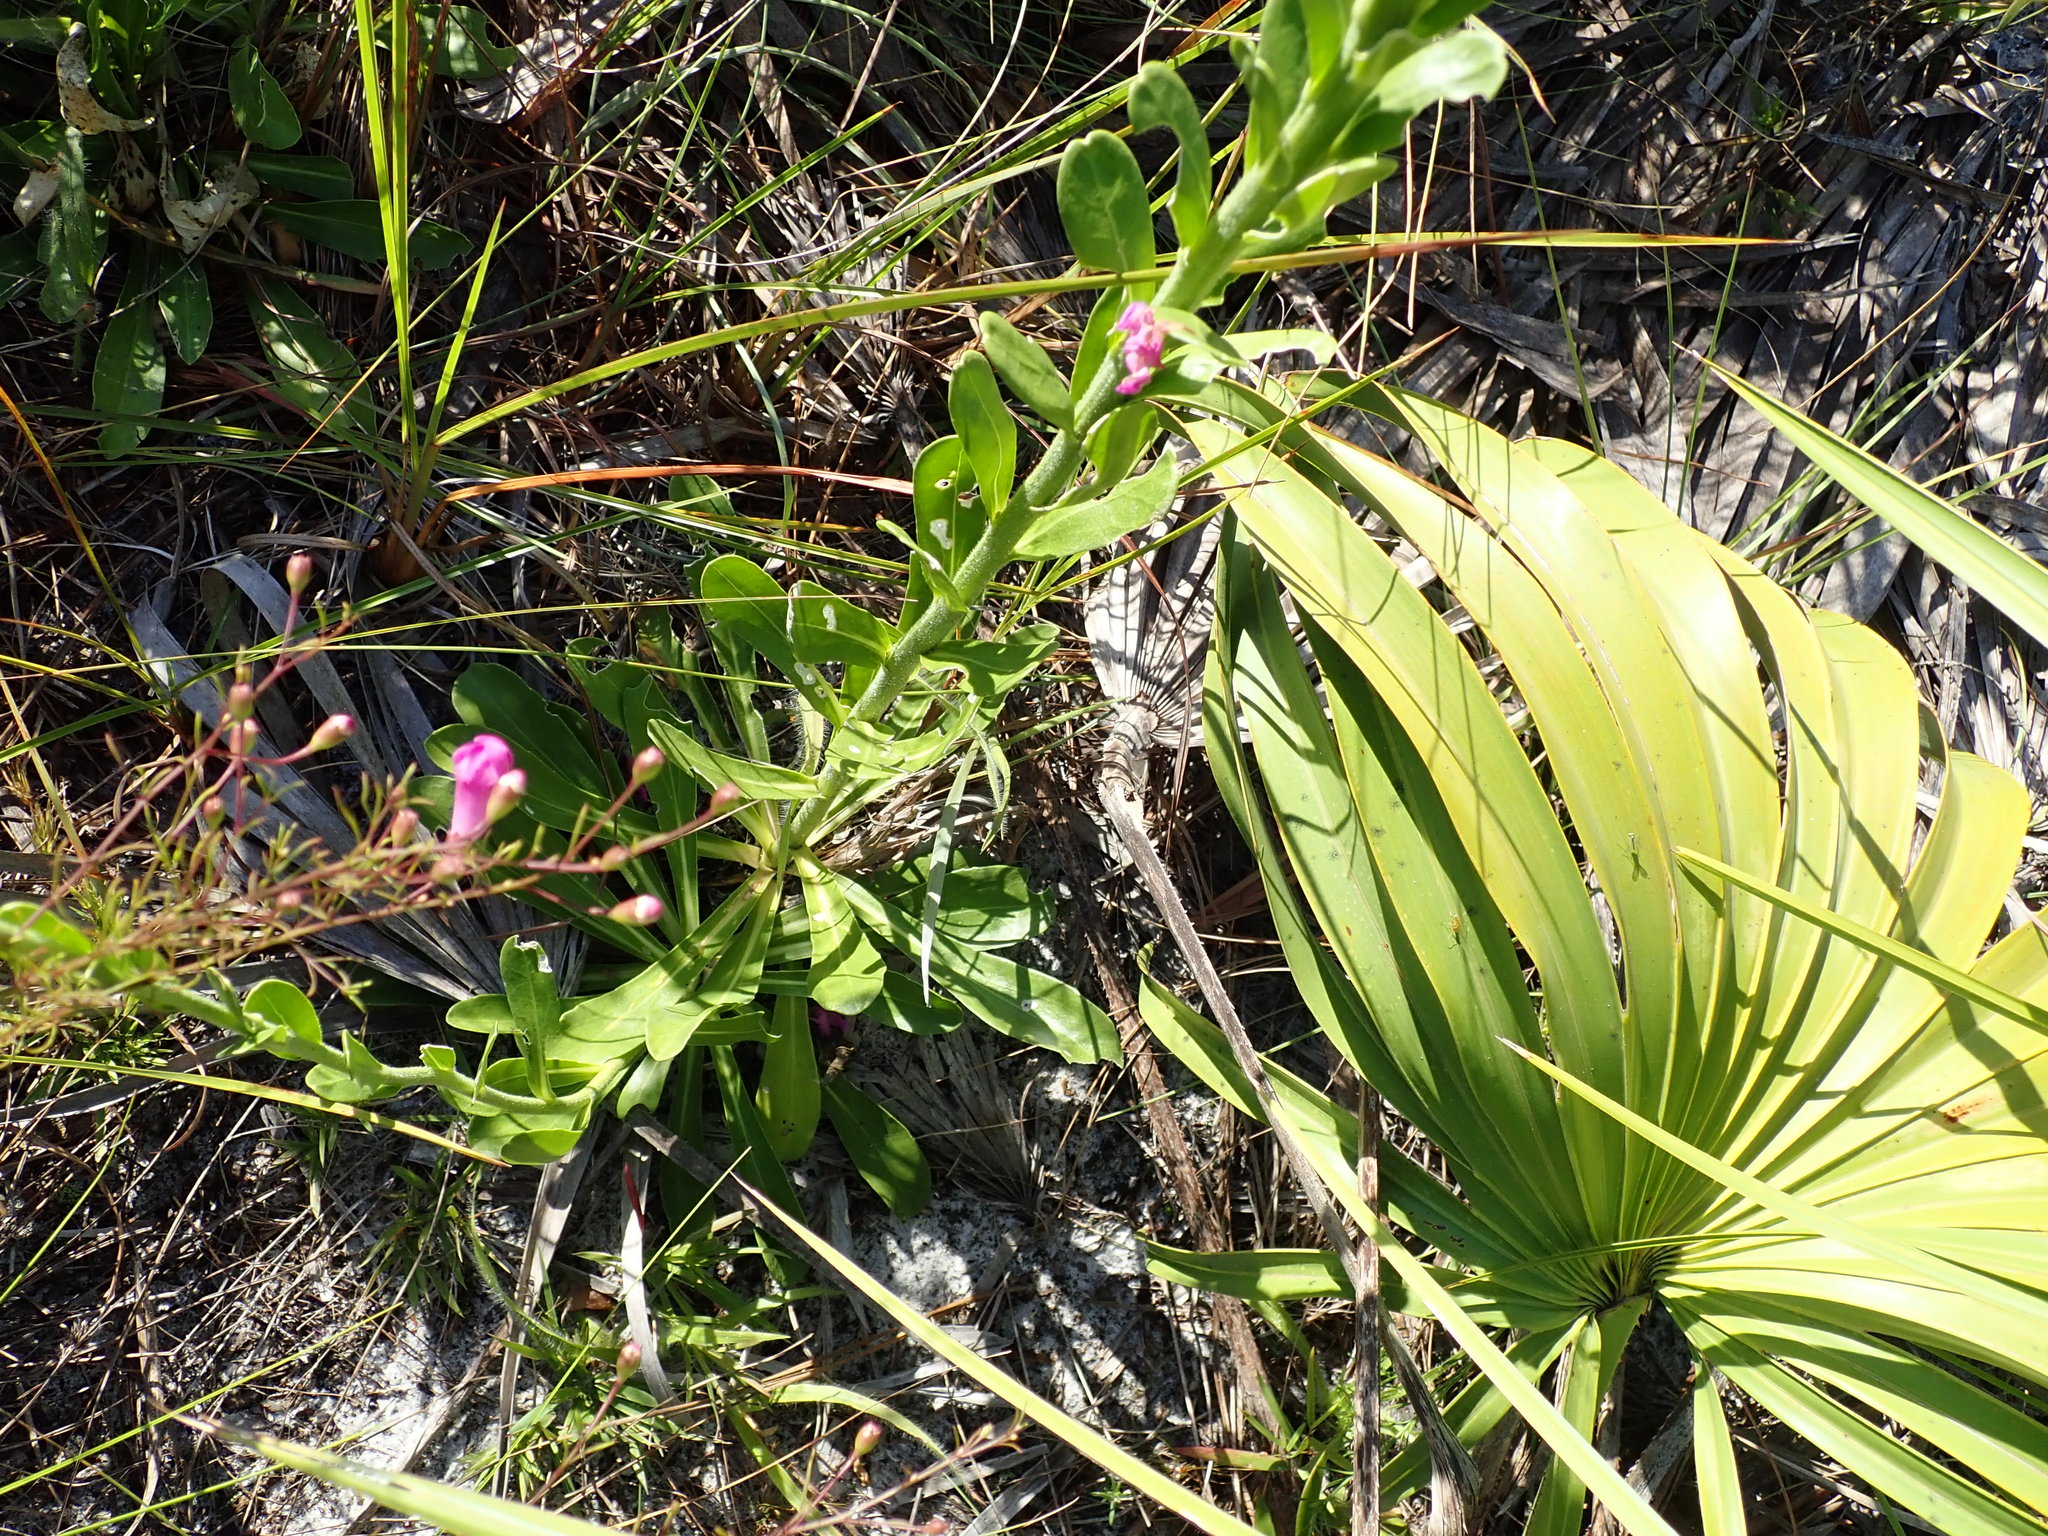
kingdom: Plantae
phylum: Tracheophyta
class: Magnoliopsida
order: Asterales
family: Asteraceae
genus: Carphephorus
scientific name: Carphephorus corymbosus
